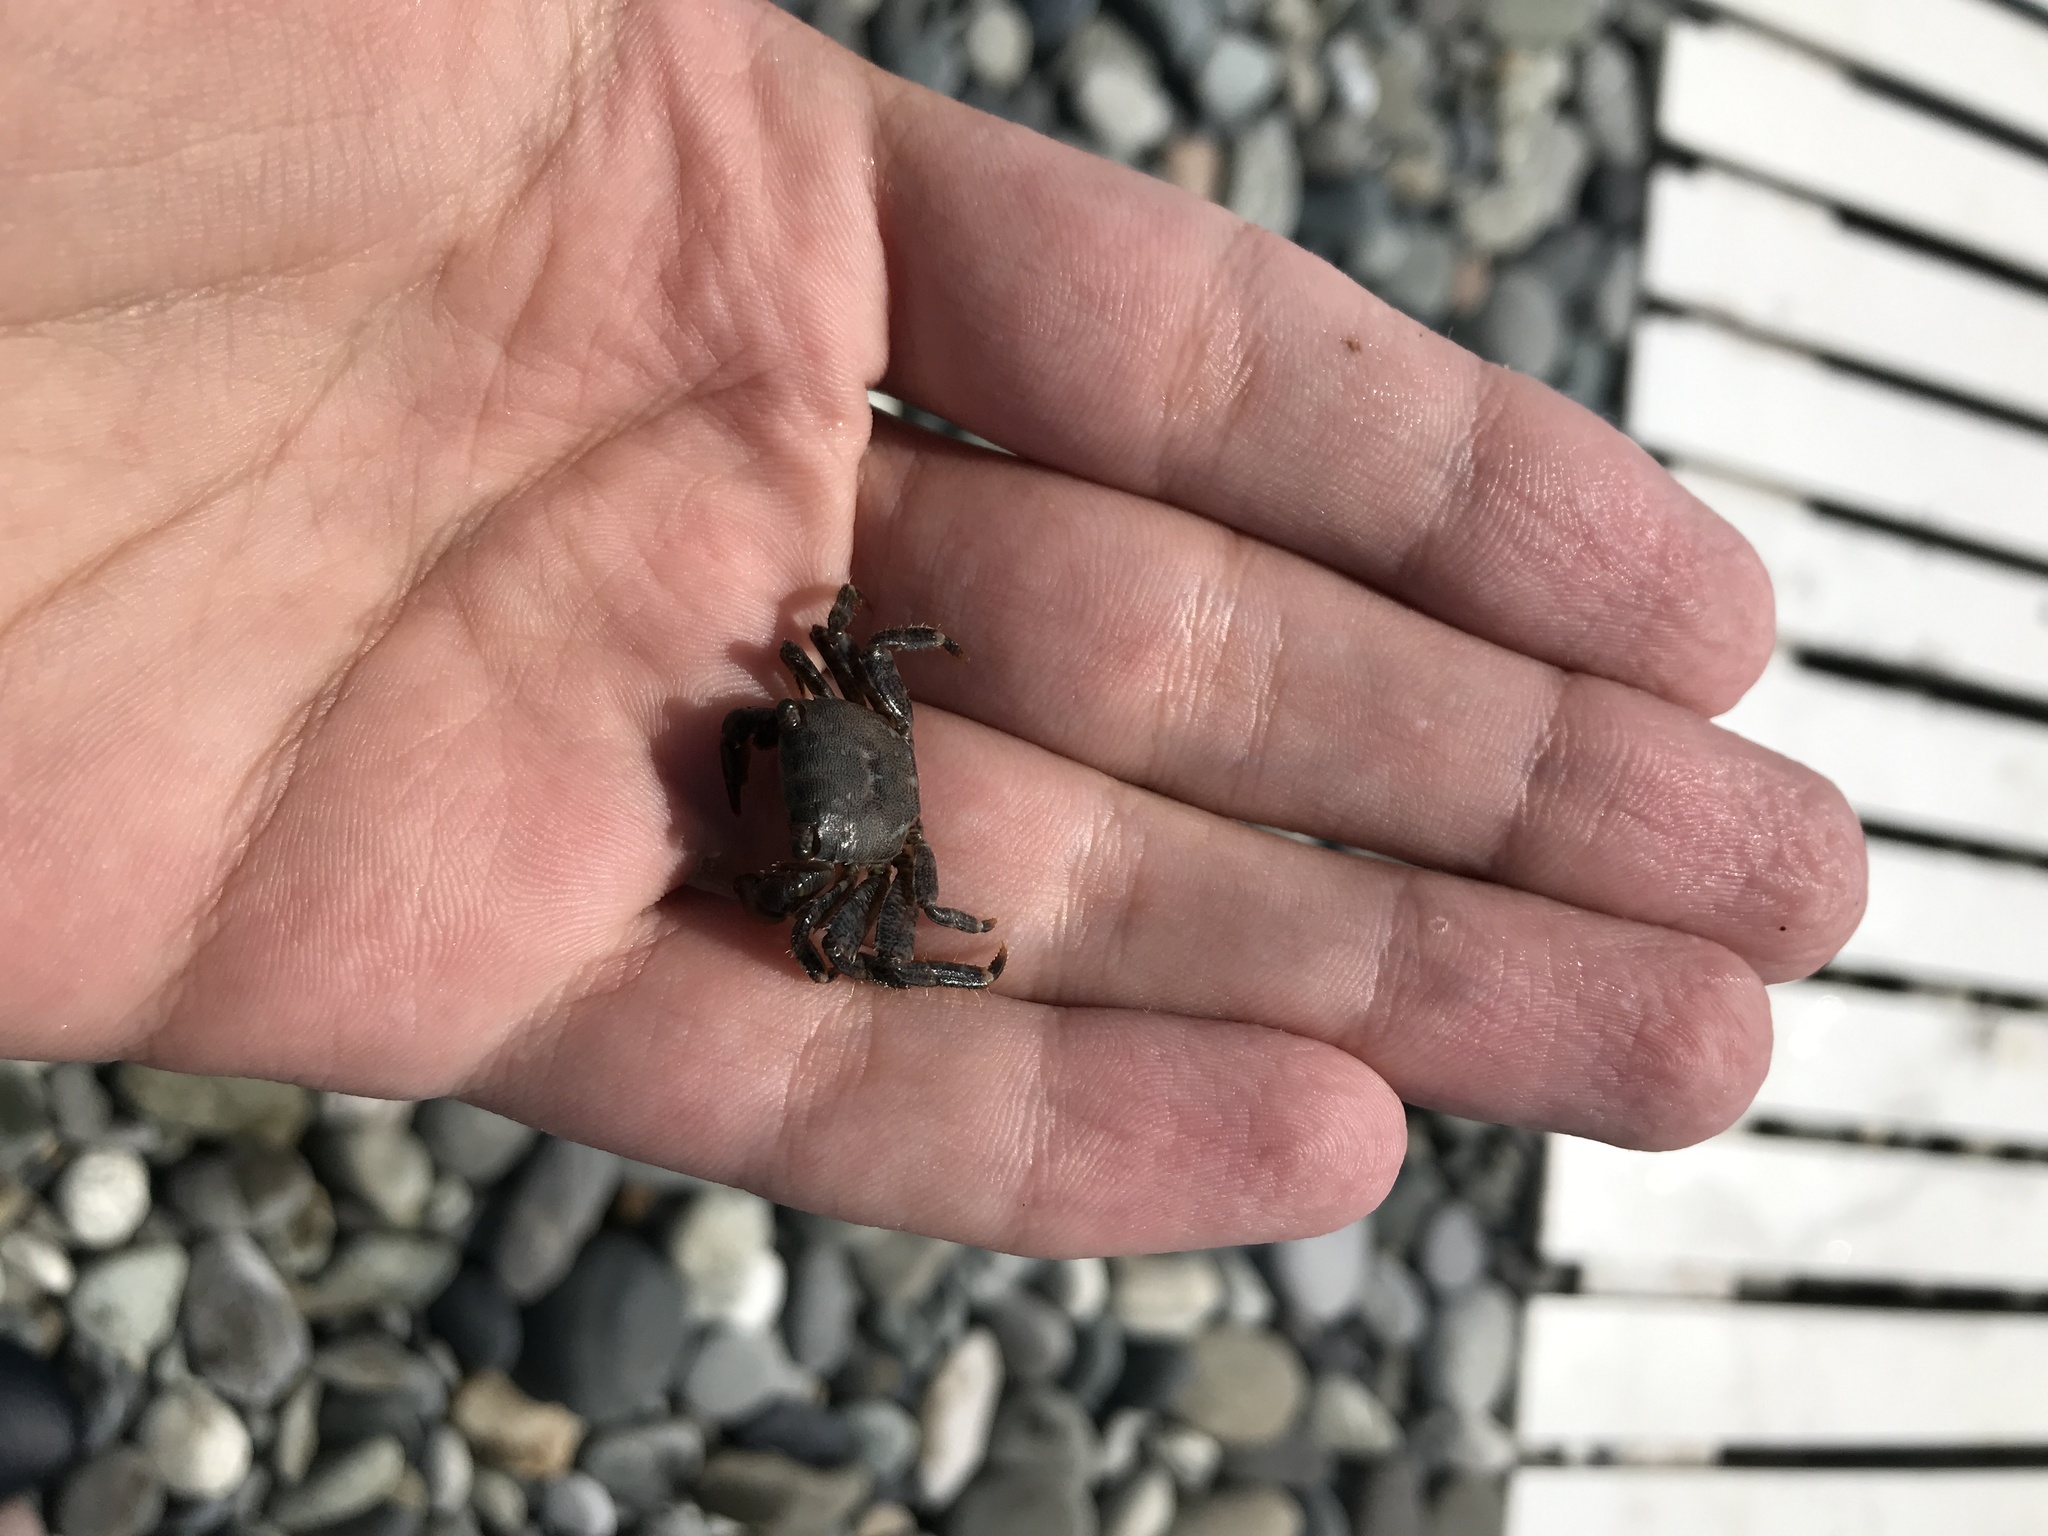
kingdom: Animalia
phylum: Arthropoda
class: Malacostraca
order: Decapoda
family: Grapsidae
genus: Pachygrapsus
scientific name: Pachygrapsus marmoratus
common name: Marbled rock crab
